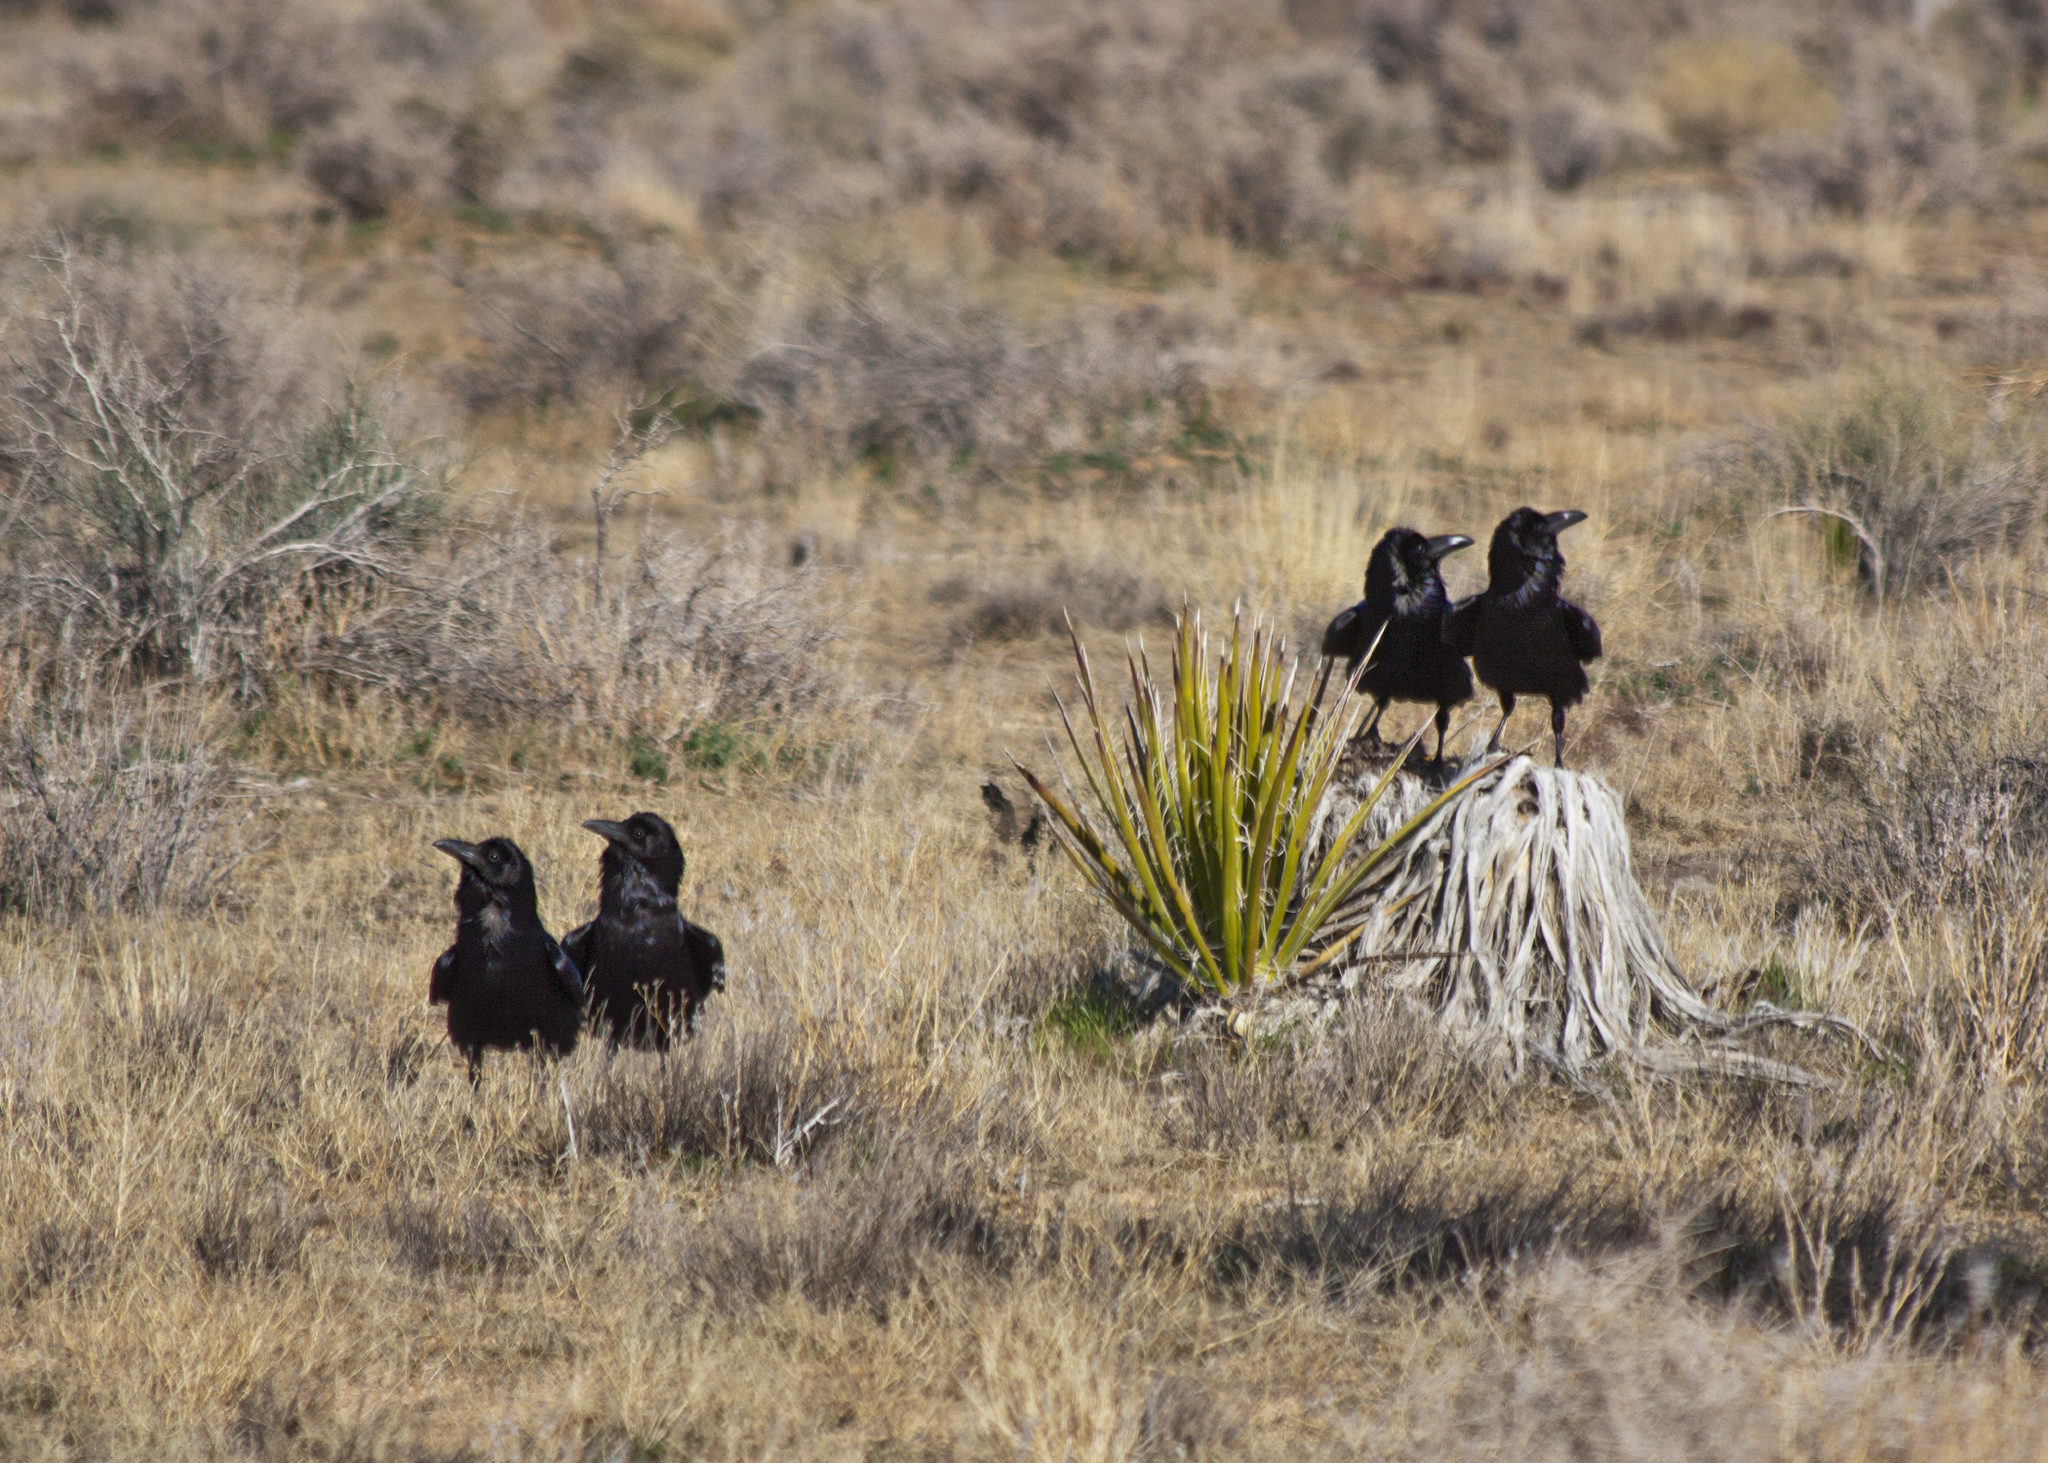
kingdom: Animalia
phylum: Chordata
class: Aves
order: Passeriformes
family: Corvidae
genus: Corvus
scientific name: Corvus corax
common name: Common raven
